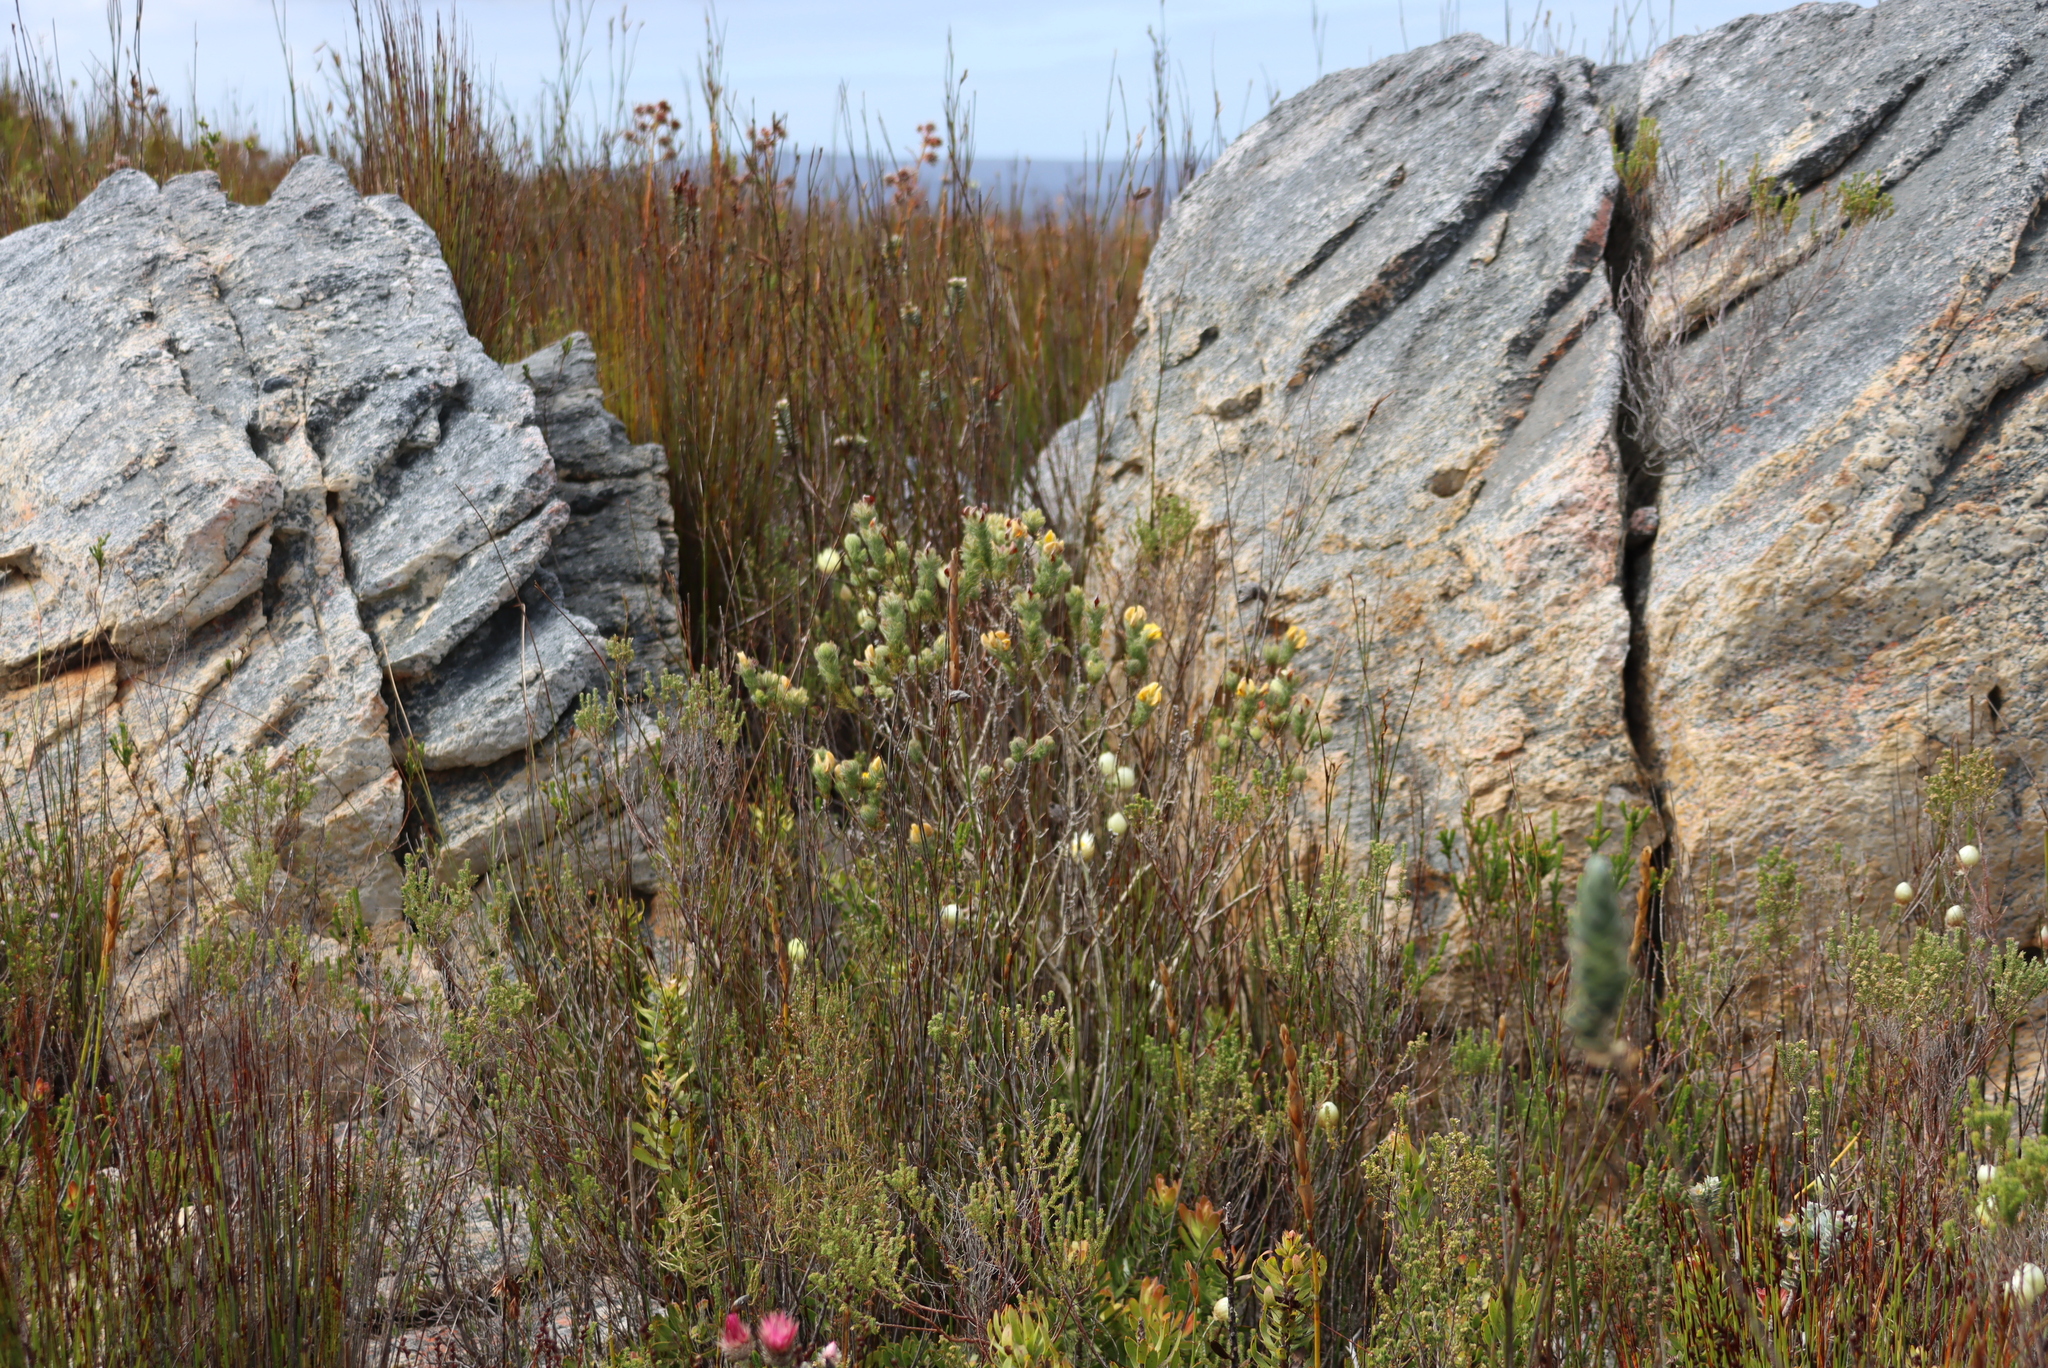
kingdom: Plantae
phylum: Tracheophyta
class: Magnoliopsida
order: Fabales
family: Fabaceae
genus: Aspalathus
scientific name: Aspalathus ciliaris
